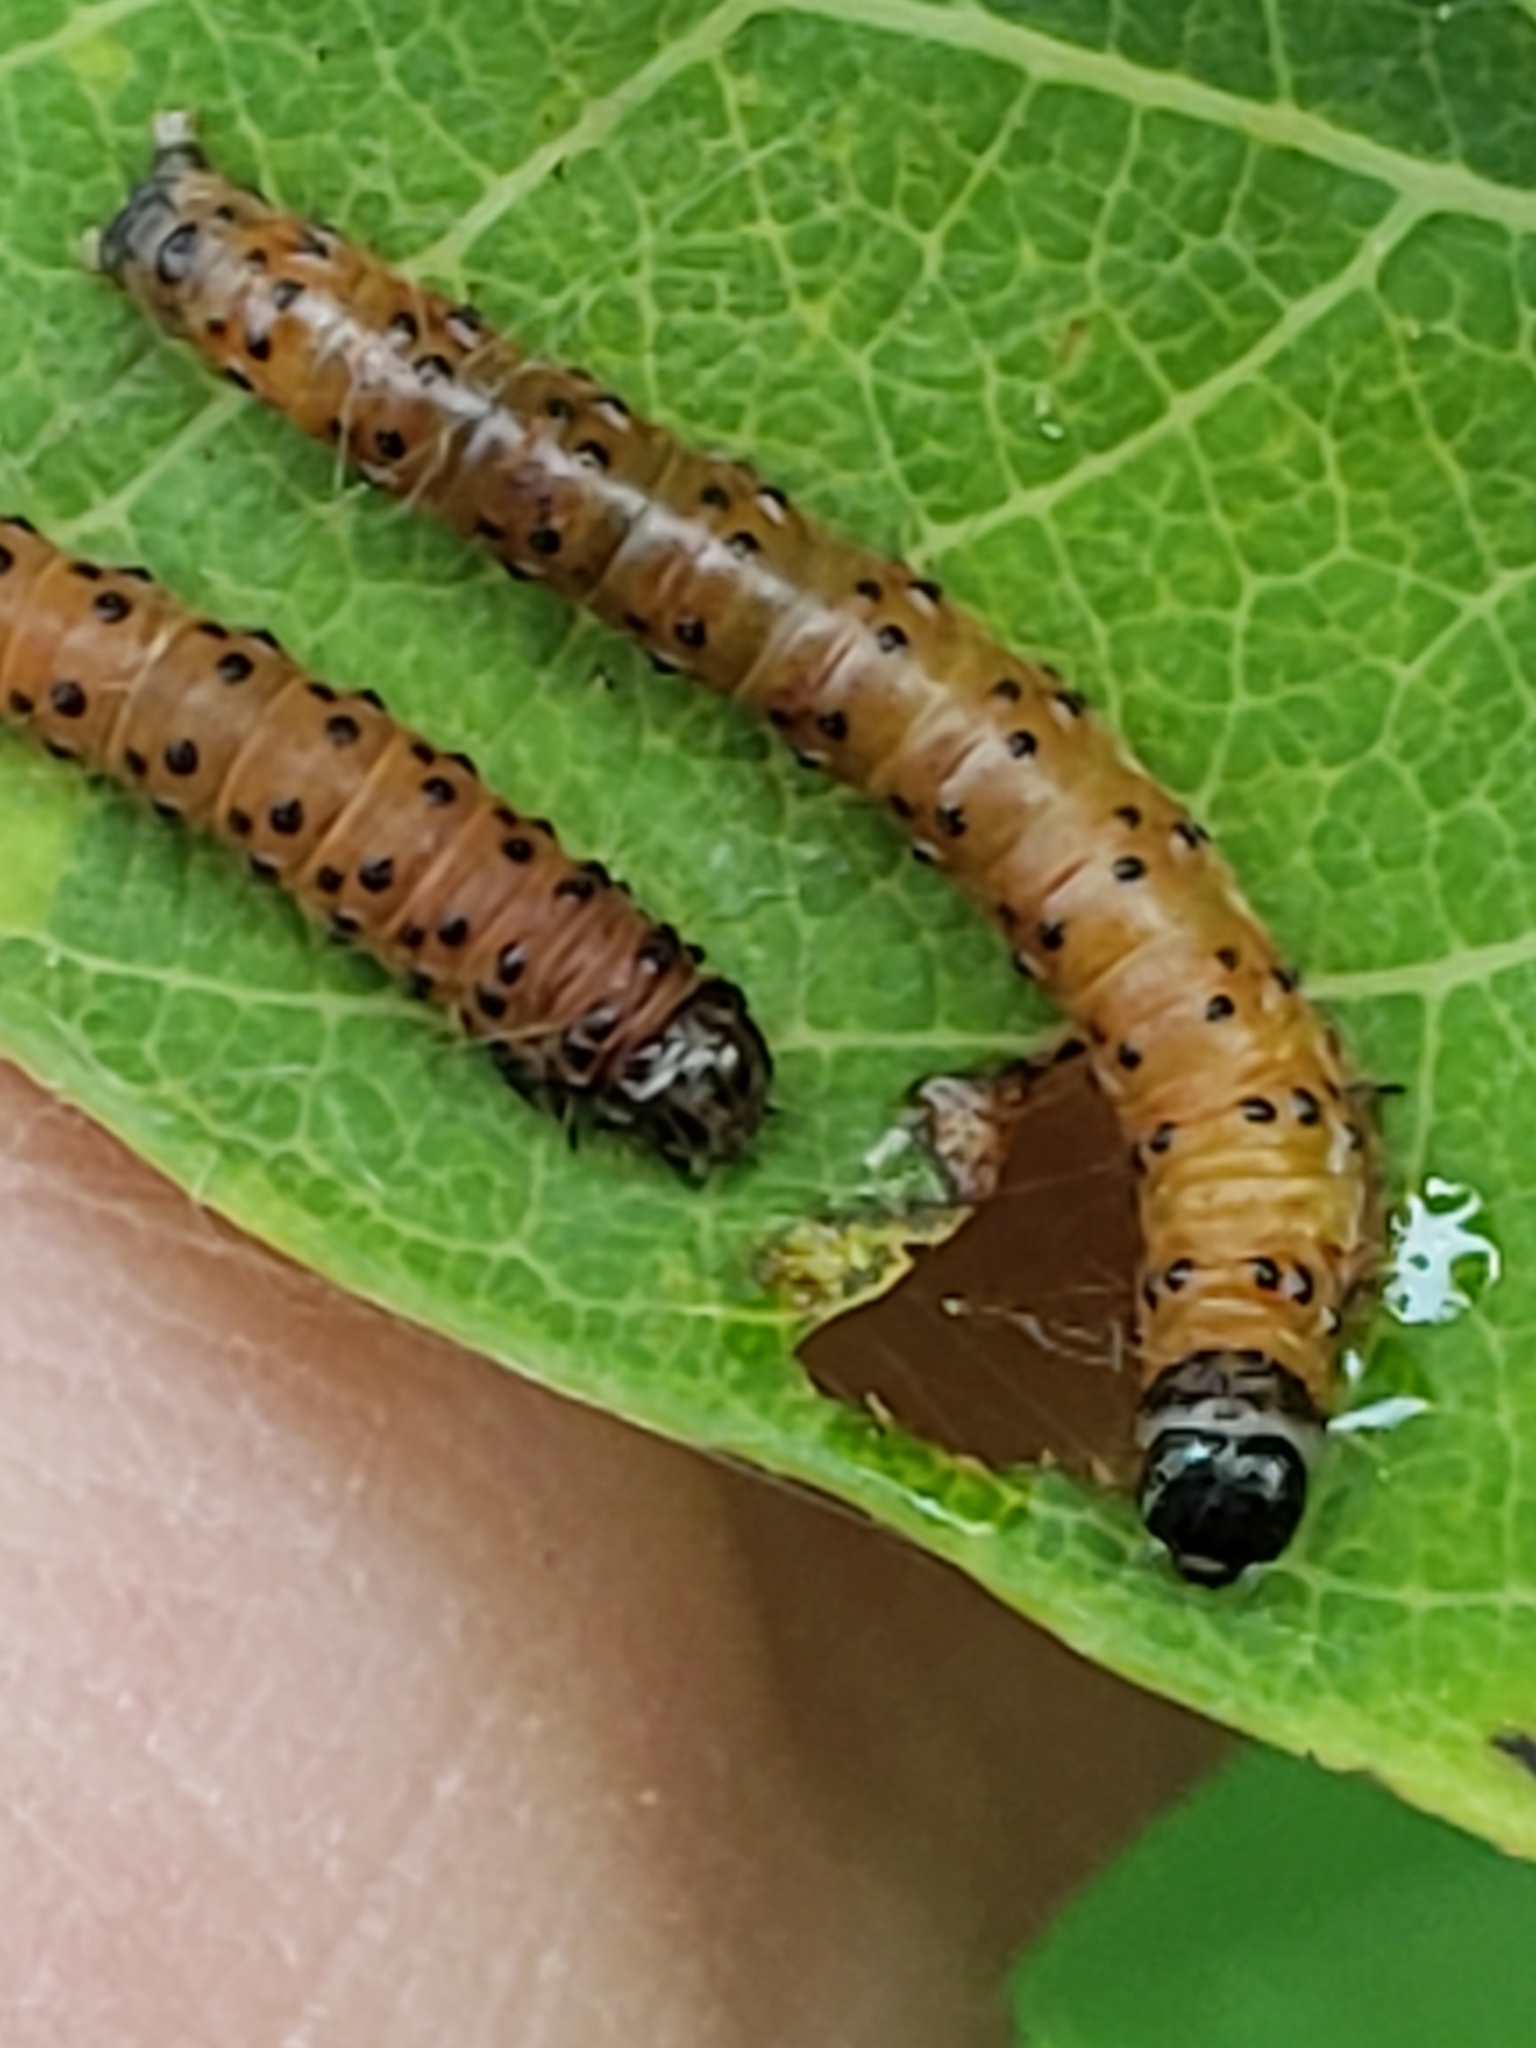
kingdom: Animalia
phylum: Arthropoda
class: Insecta
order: Lepidoptera
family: Crambidae
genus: Saucrobotys
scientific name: Saucrobotys futilalis
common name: Dogbane saucrobotys moth
